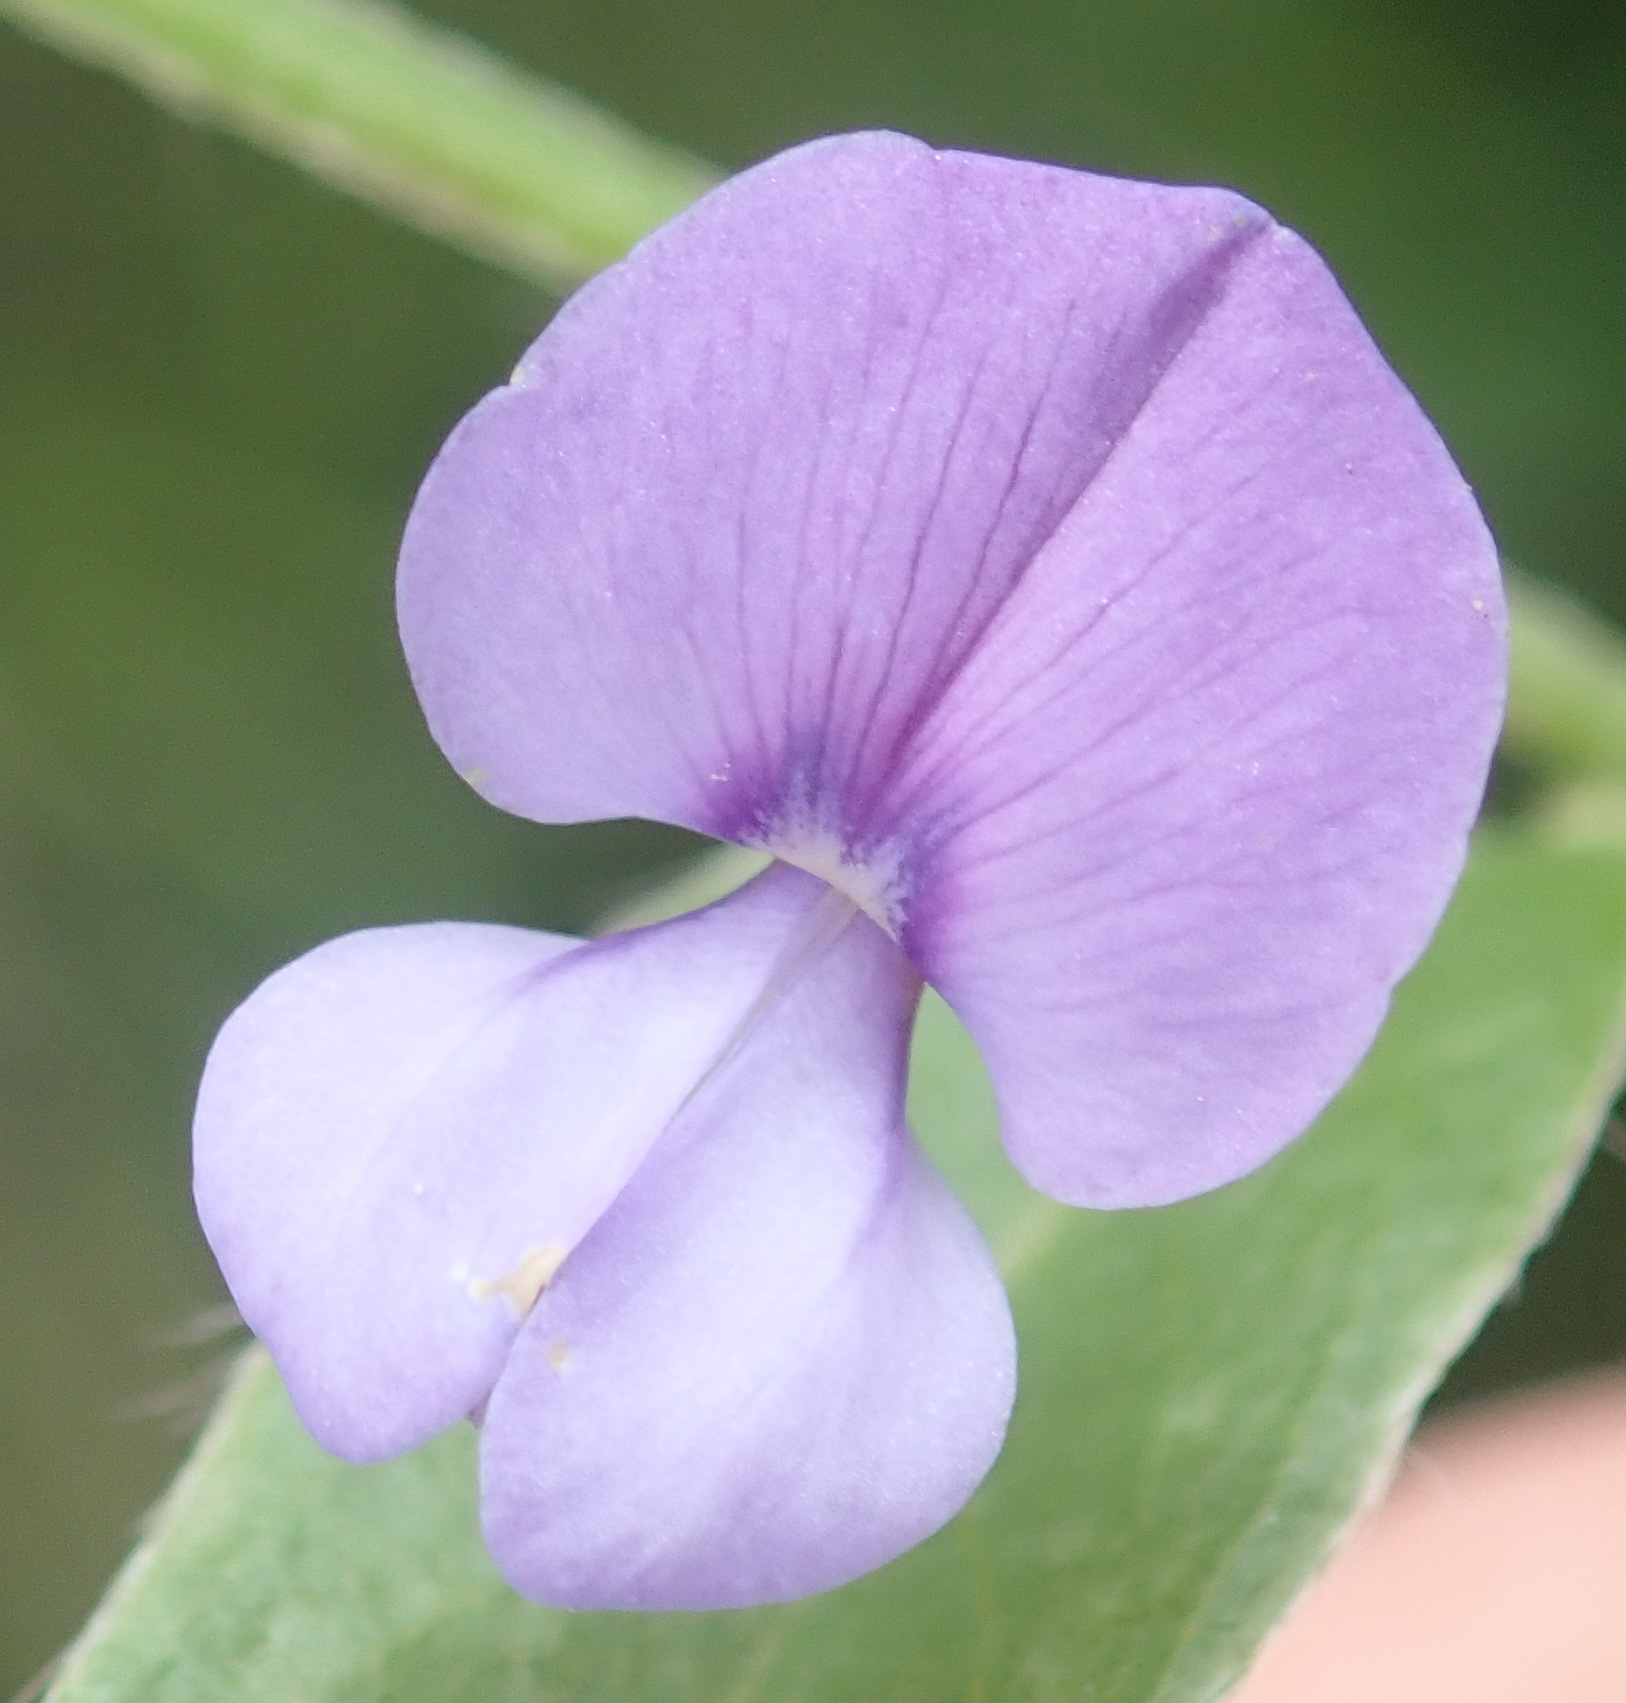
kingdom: Plantae
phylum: Tracheophyta
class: Magnoliopsida
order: Fabales
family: Fabaceae
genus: Psoralea
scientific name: Psoralea plauta
